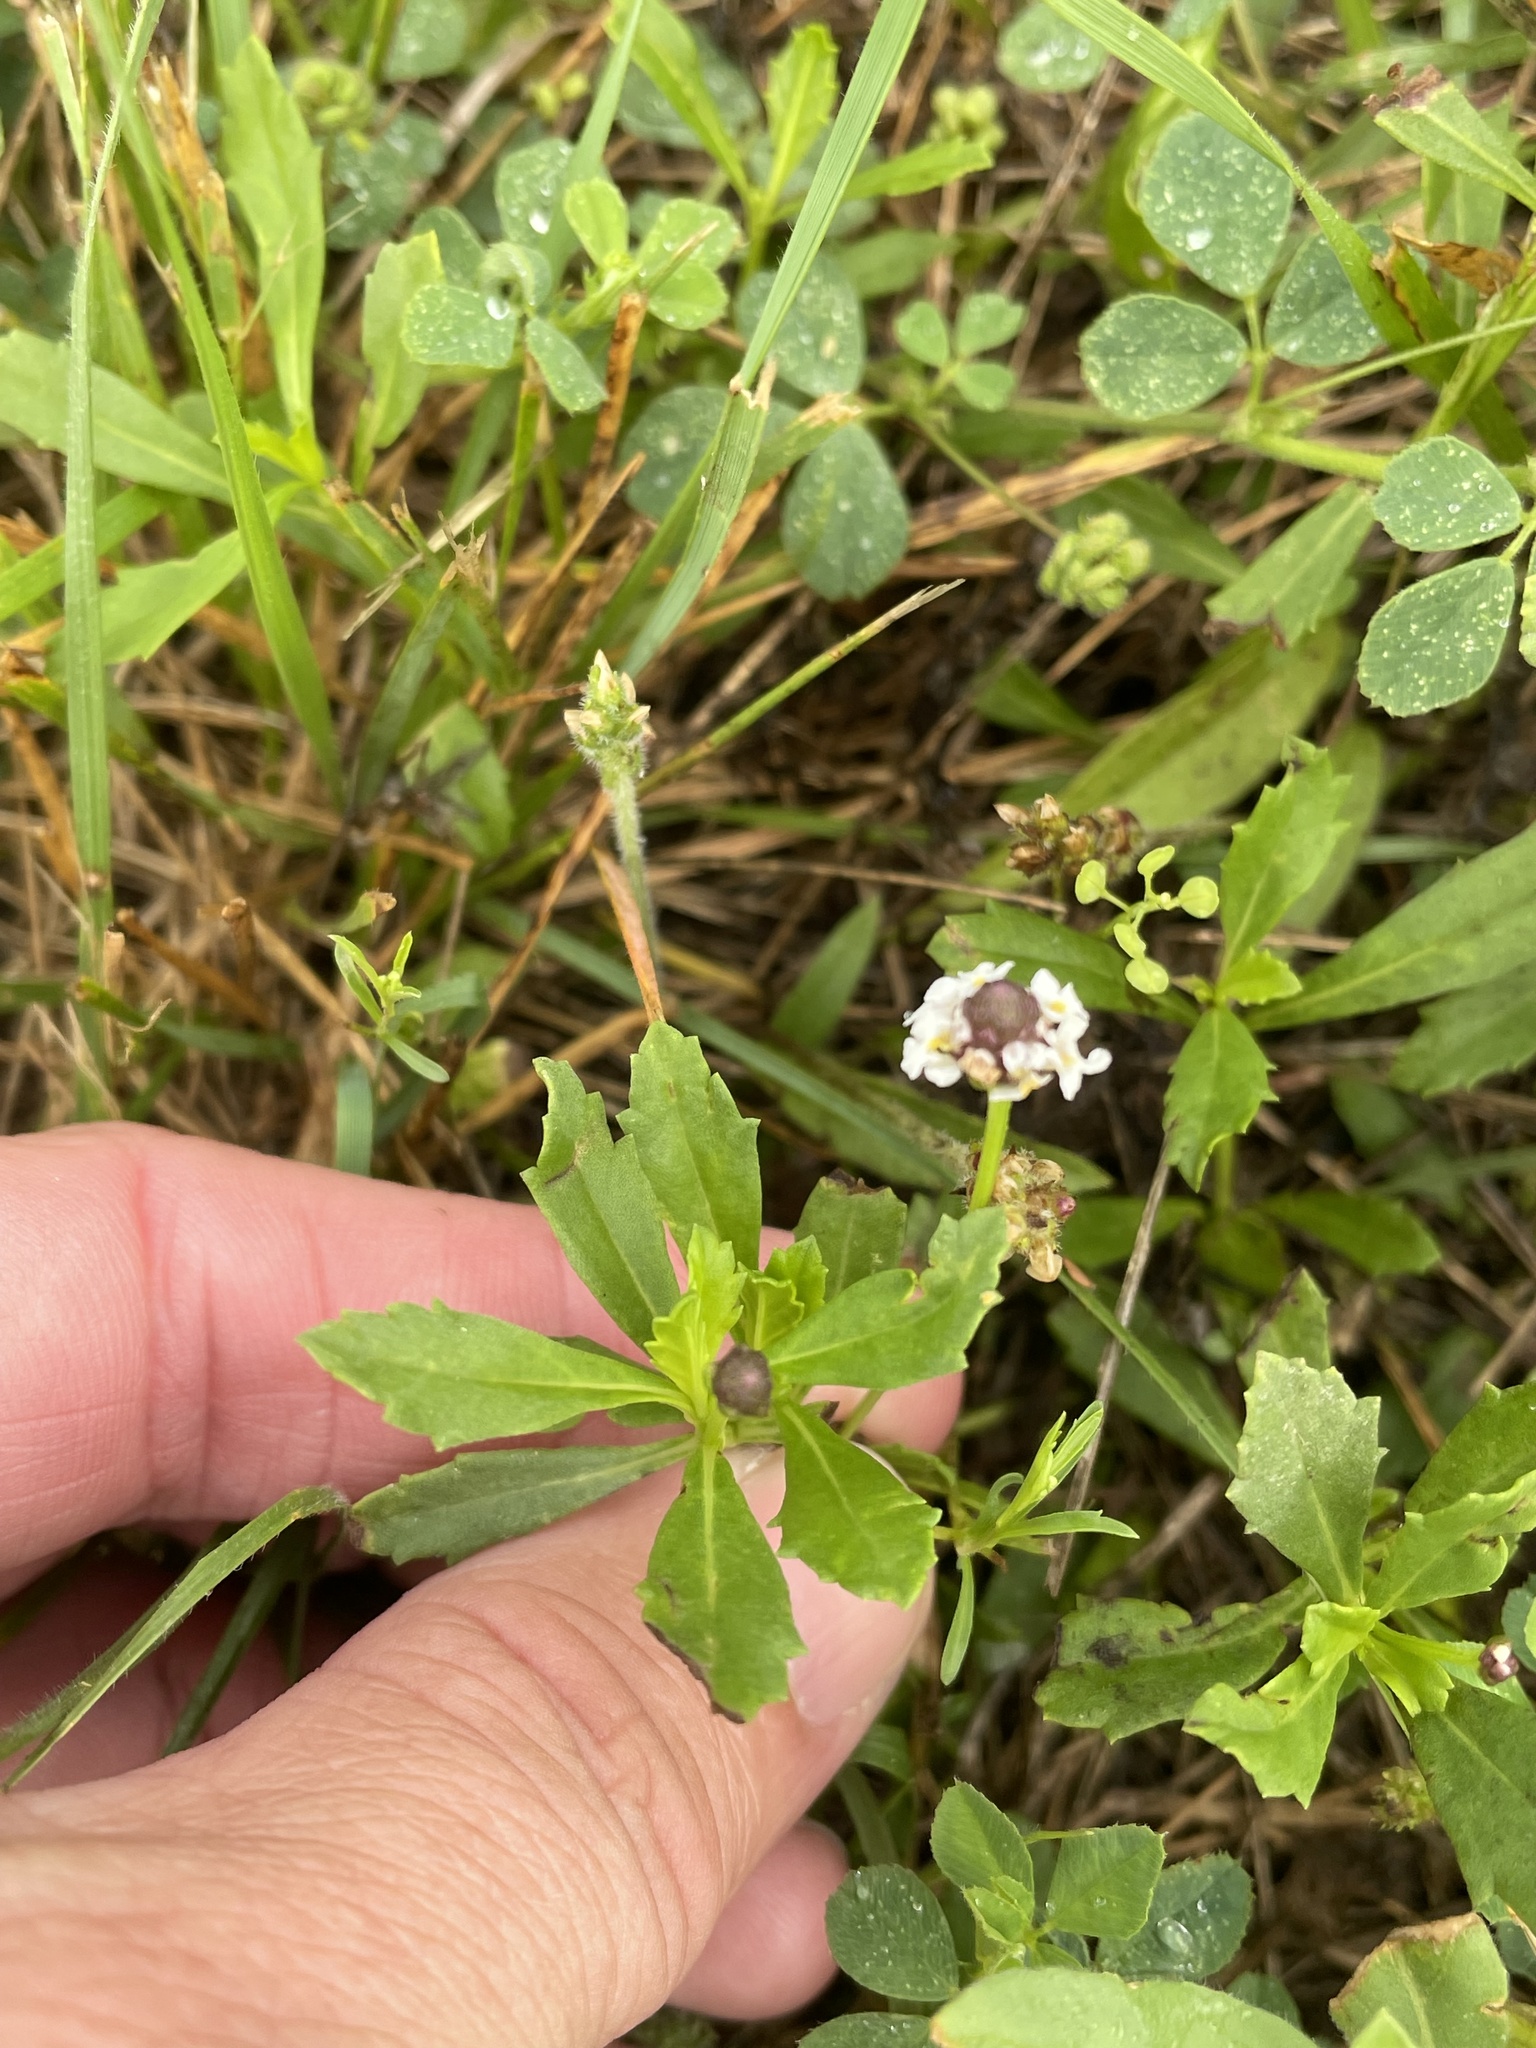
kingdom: Plantae
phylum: Tracheophyta
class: Magnoliopsida
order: Lamiales
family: Verbenaceae
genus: Phyla
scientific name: Phyla nodiflora
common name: Frogfruit
